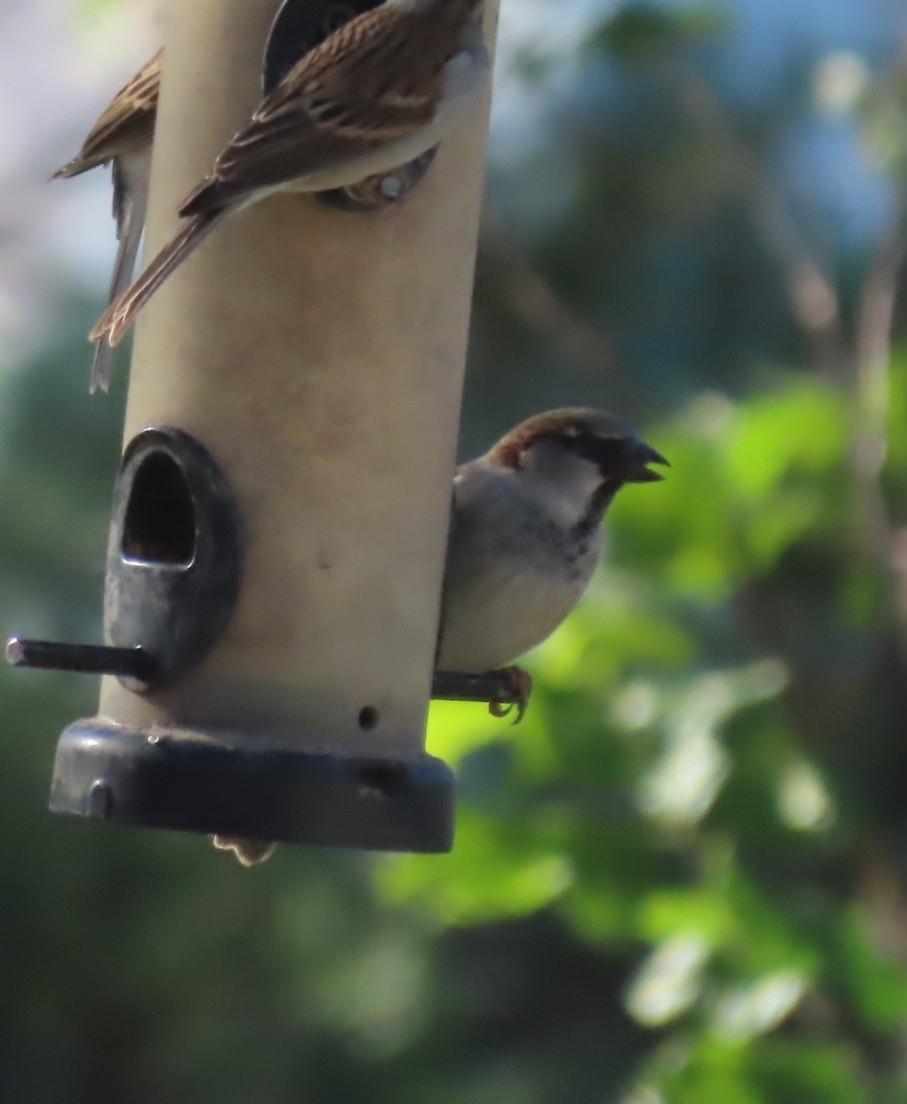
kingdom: Animalia
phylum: Chordata
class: Aves
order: Passeriformes
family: Passeridae
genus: Passer
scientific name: Passer domesticus
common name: House sparrow
